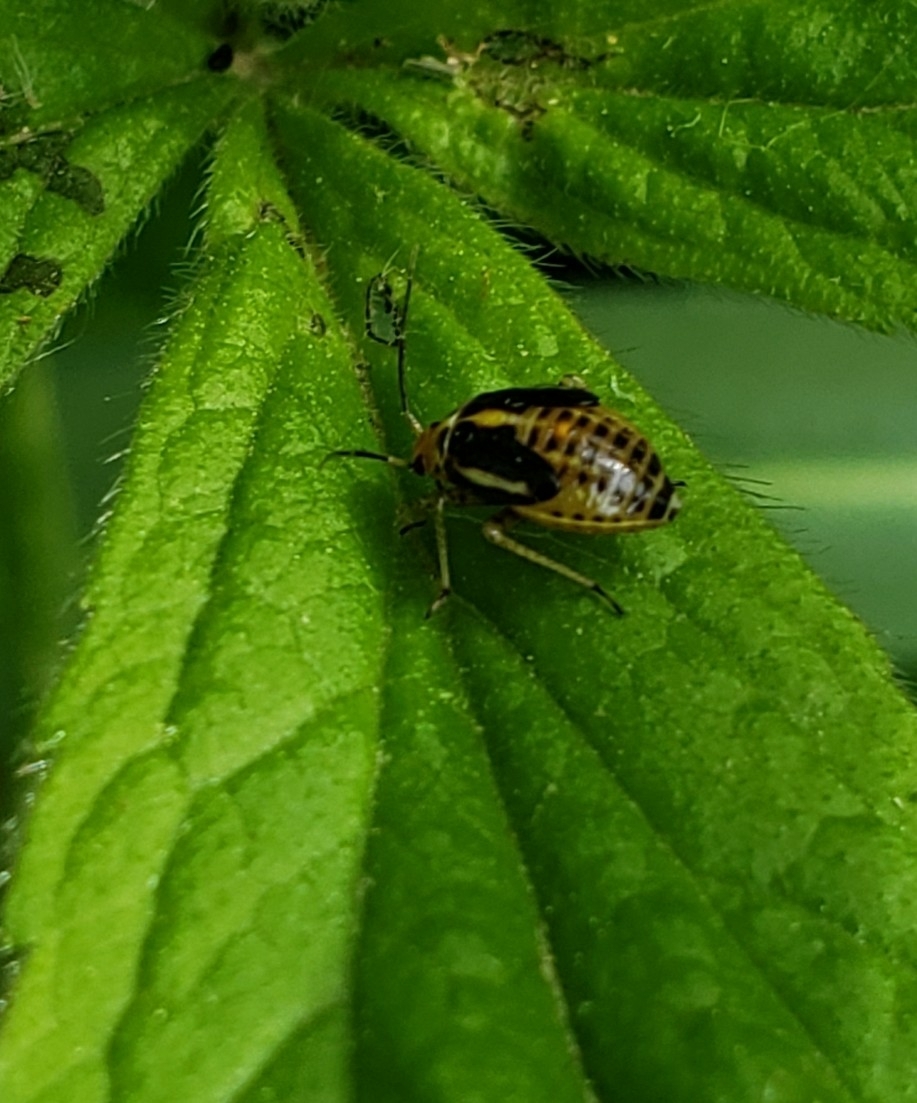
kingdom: Animalia
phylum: Arthropoda
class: Insecta
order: Hemiptera
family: Miridae
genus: Poecilocapsus
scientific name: Poecilocapsus lineatus
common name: Four-lined plant bug
